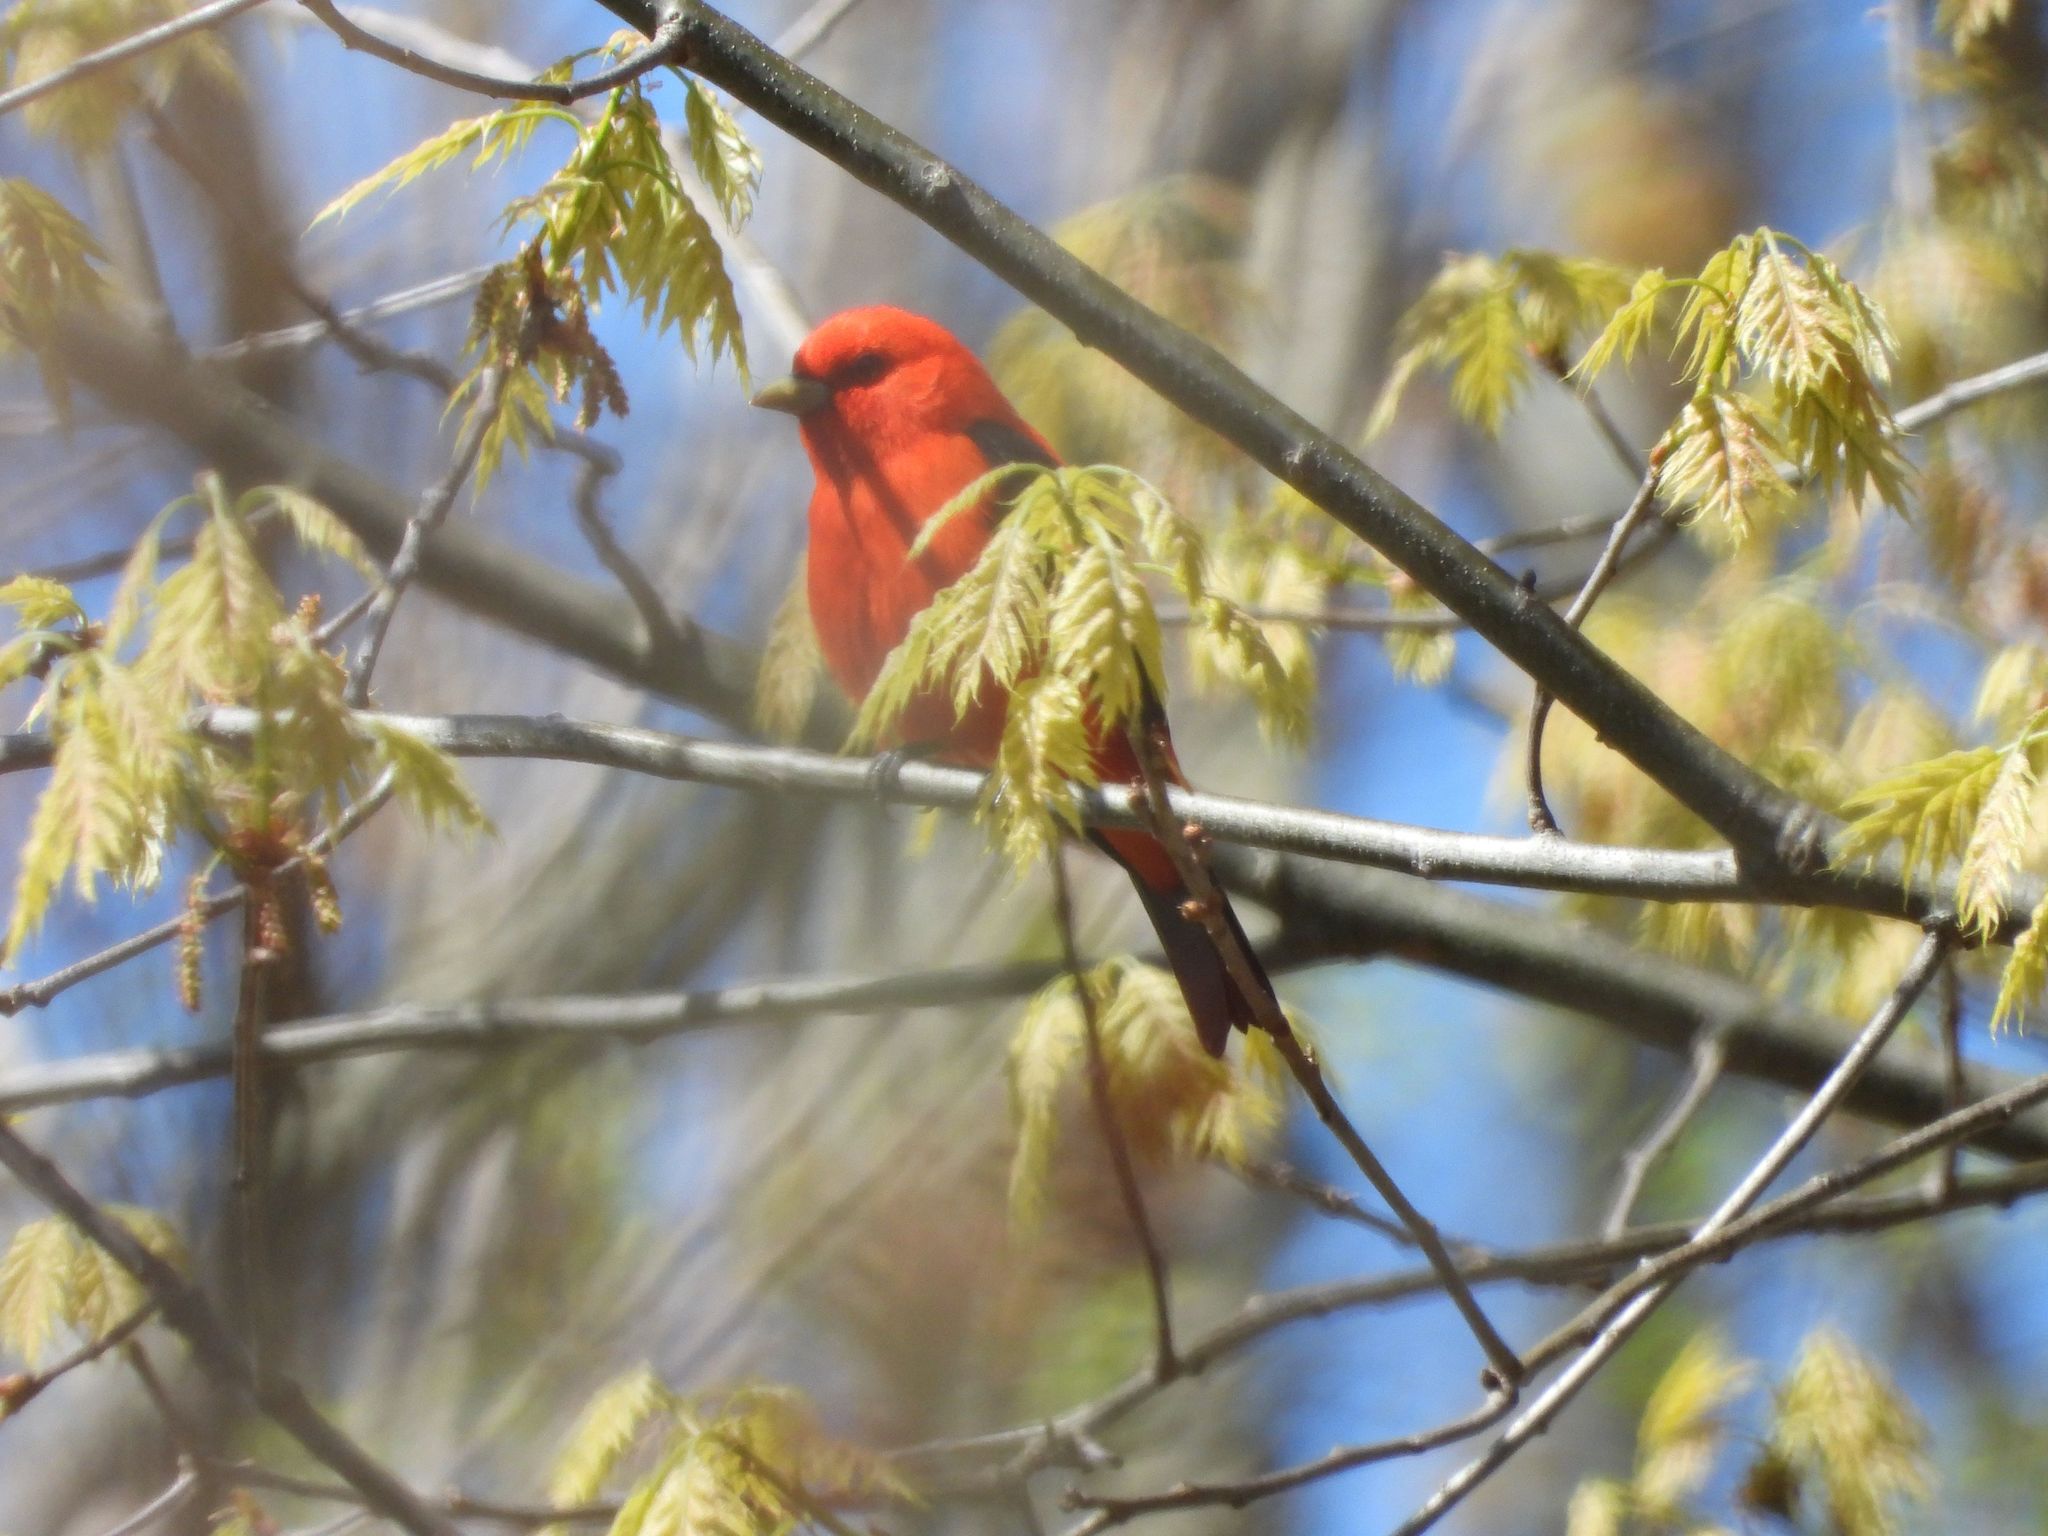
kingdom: Animalia
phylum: Chordata
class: Aves
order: Passeriformes
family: Cardinalidae
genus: Piranga
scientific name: Piranga olivacea
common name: Scarlet tanager
